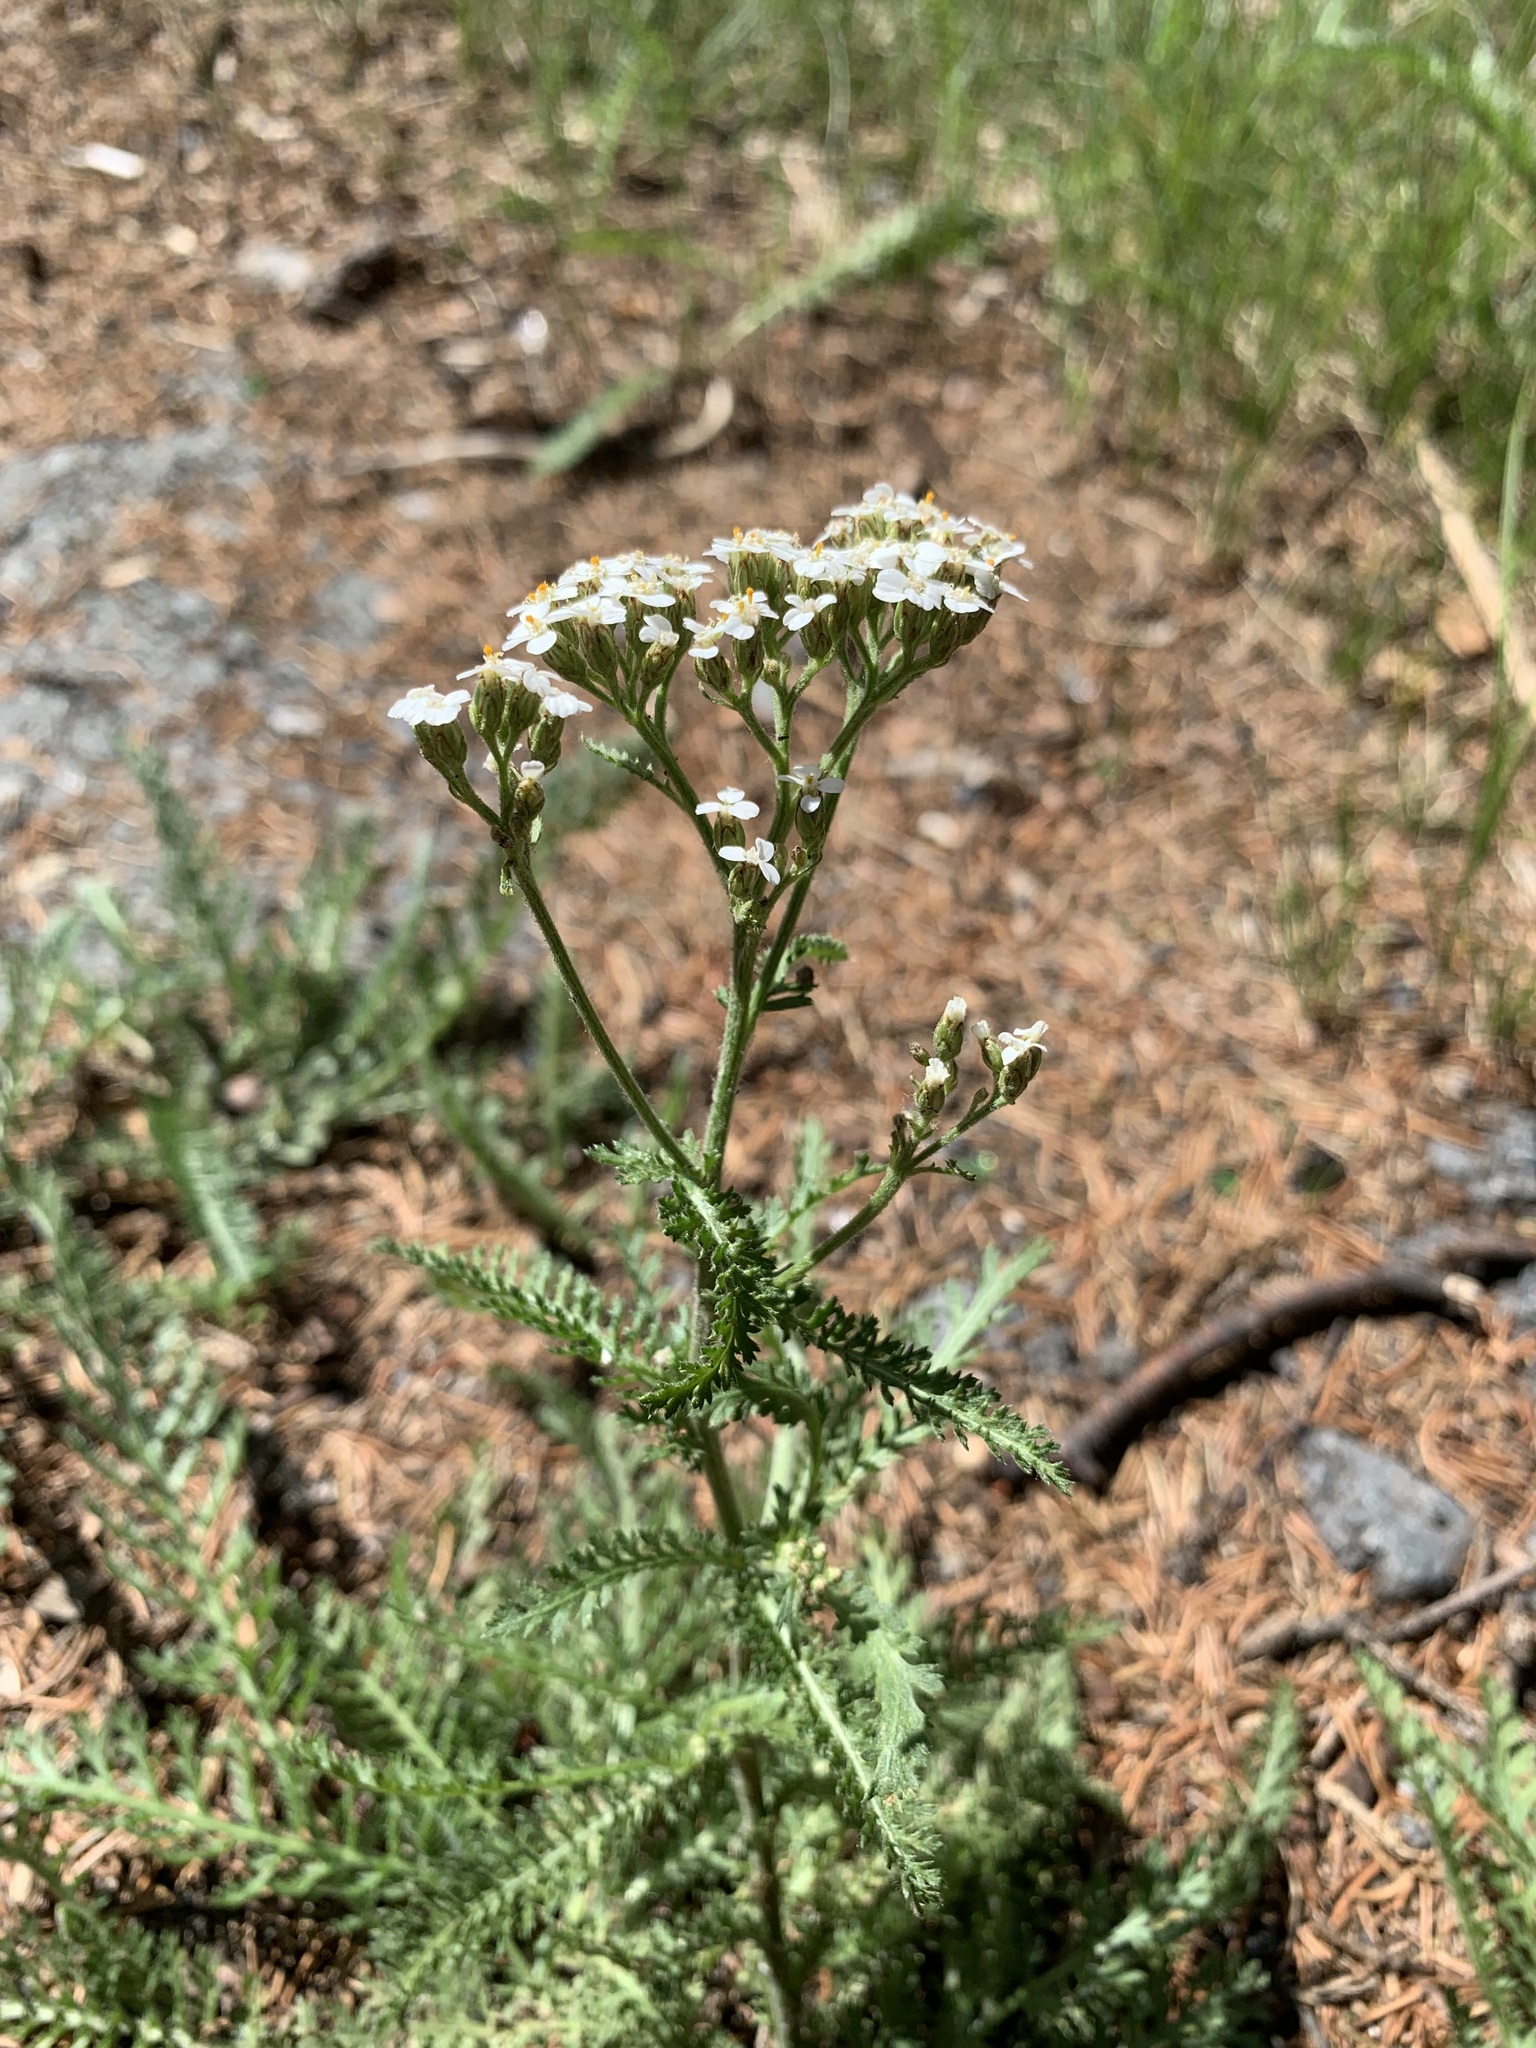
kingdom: Plantae
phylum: Tracheophyta
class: Magnoliopsida
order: Asterales
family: Asteraceae
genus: Achillea
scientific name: Achillea millefolium
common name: Yarrow
